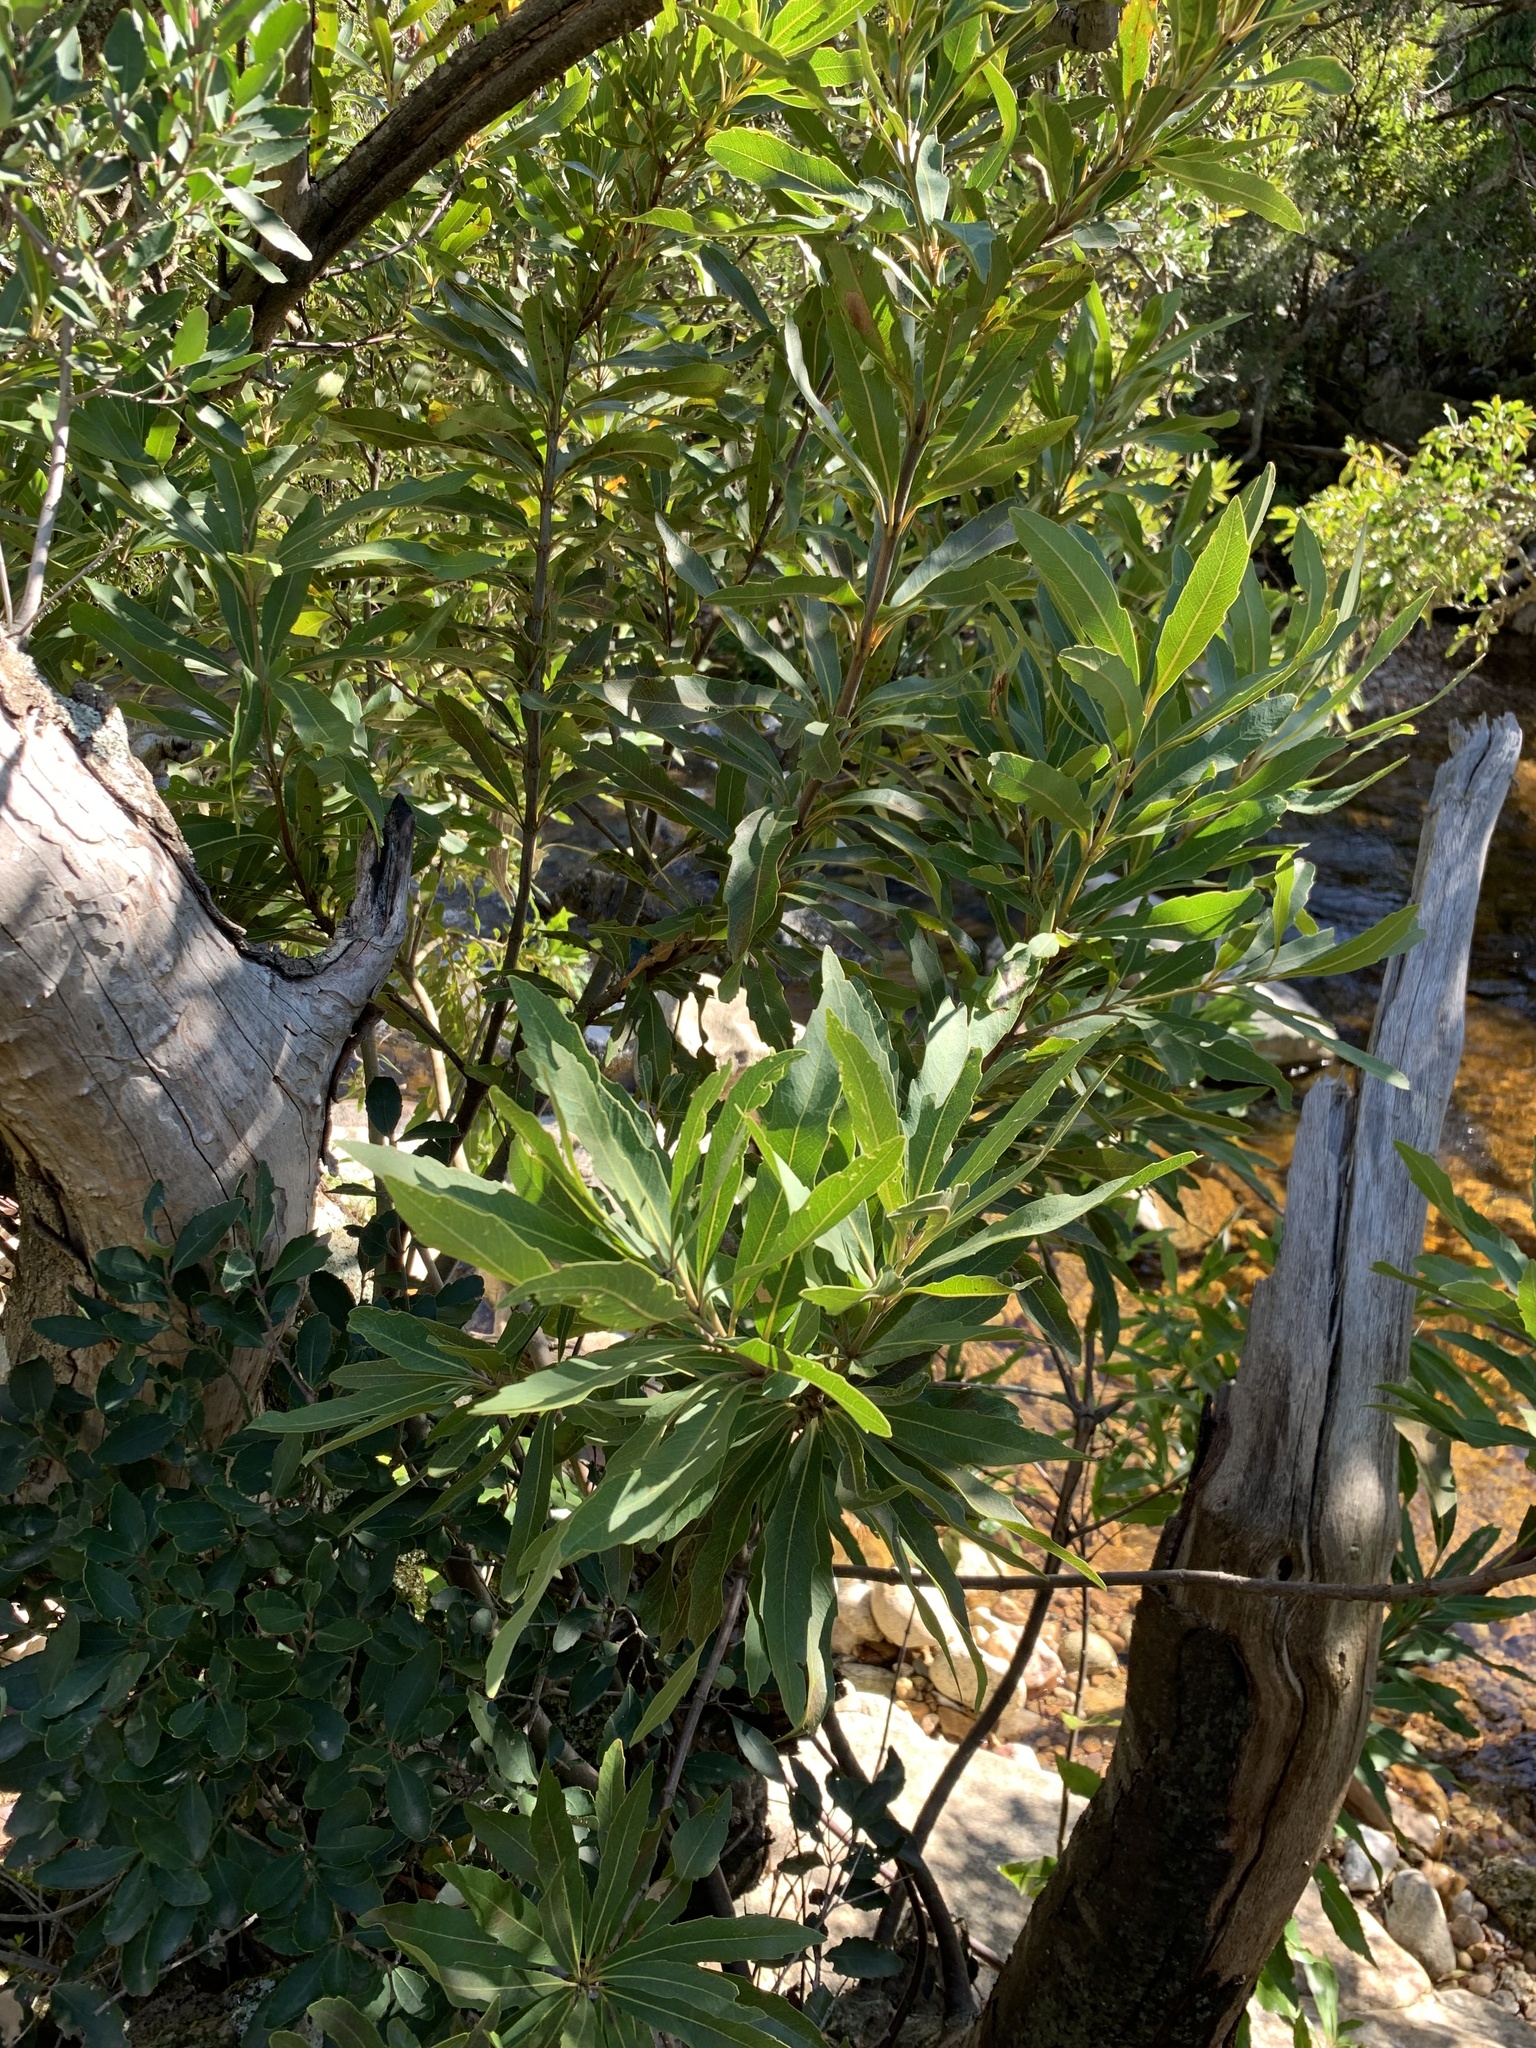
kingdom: Plantae
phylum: Tracheophyta
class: Magnoliopsida
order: Proteales
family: Proteaceae
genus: Brabejum
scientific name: Brabejum stellatifolium
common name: Wild almond
